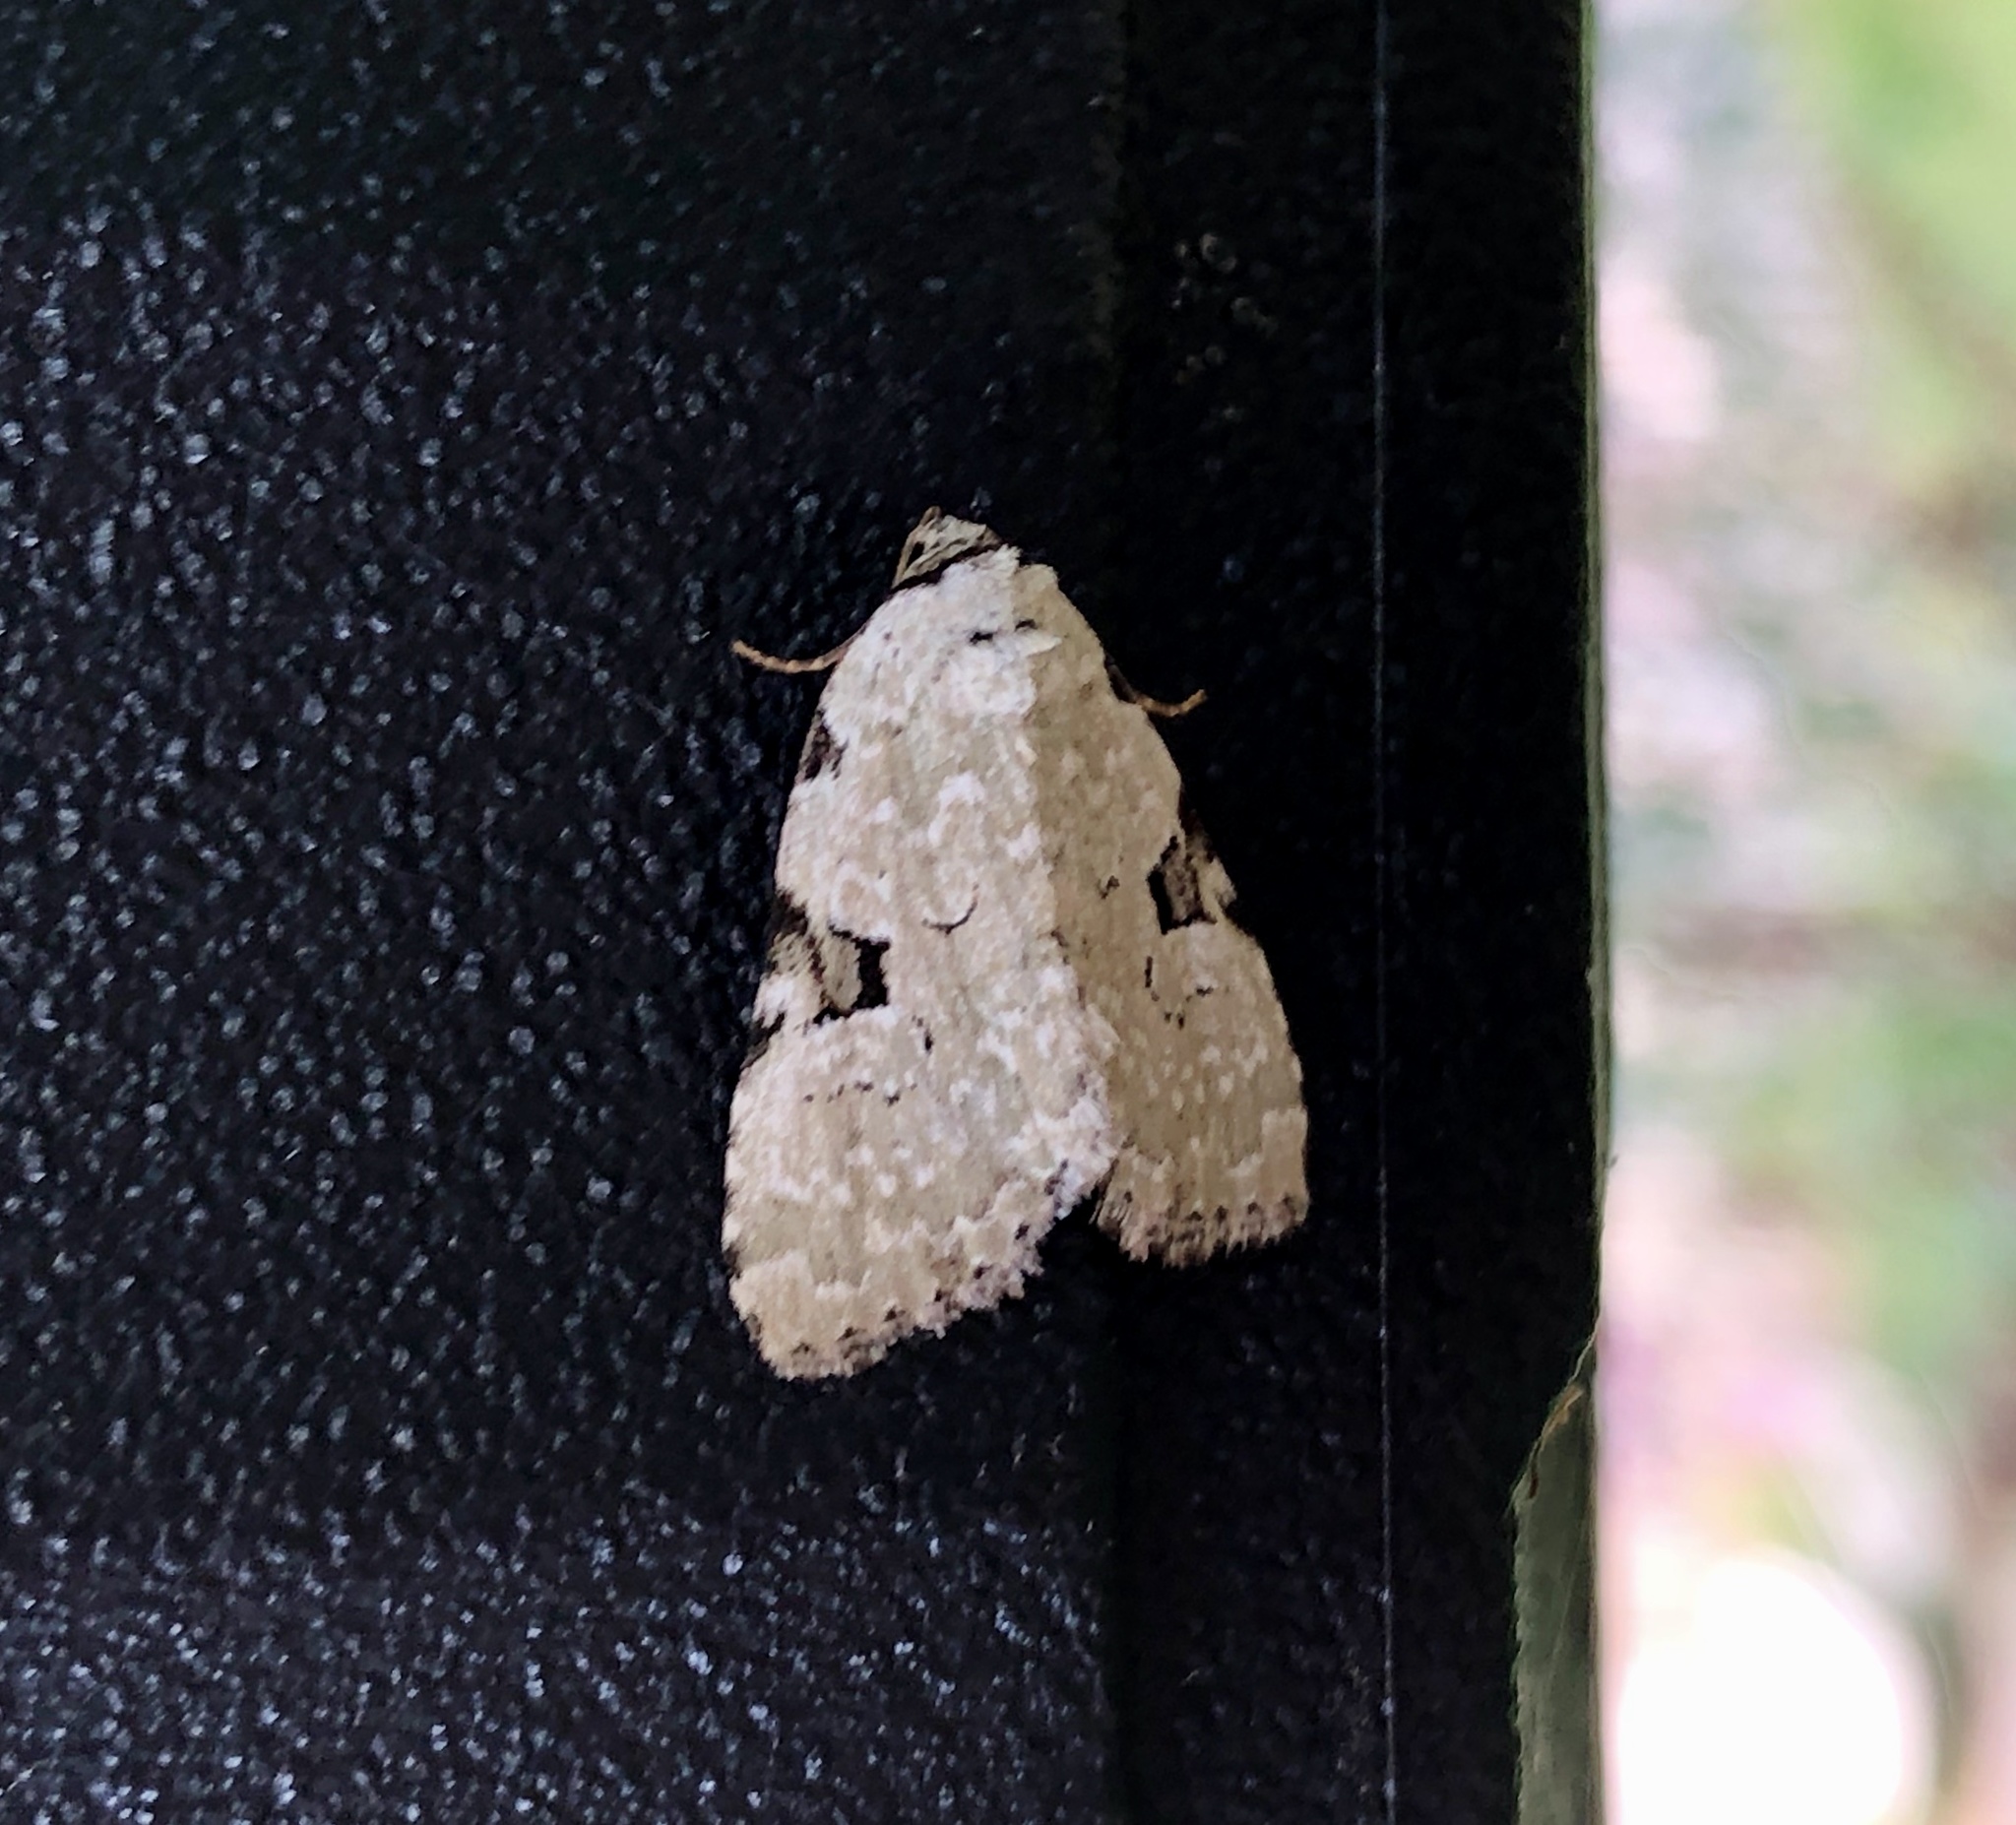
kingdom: Animalia
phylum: Arthropoda
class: Insecta
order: Lepidoptera
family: Noctuidae
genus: Leuconycta
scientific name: Leuconycta diphteroides
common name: Green leuconycta moth
